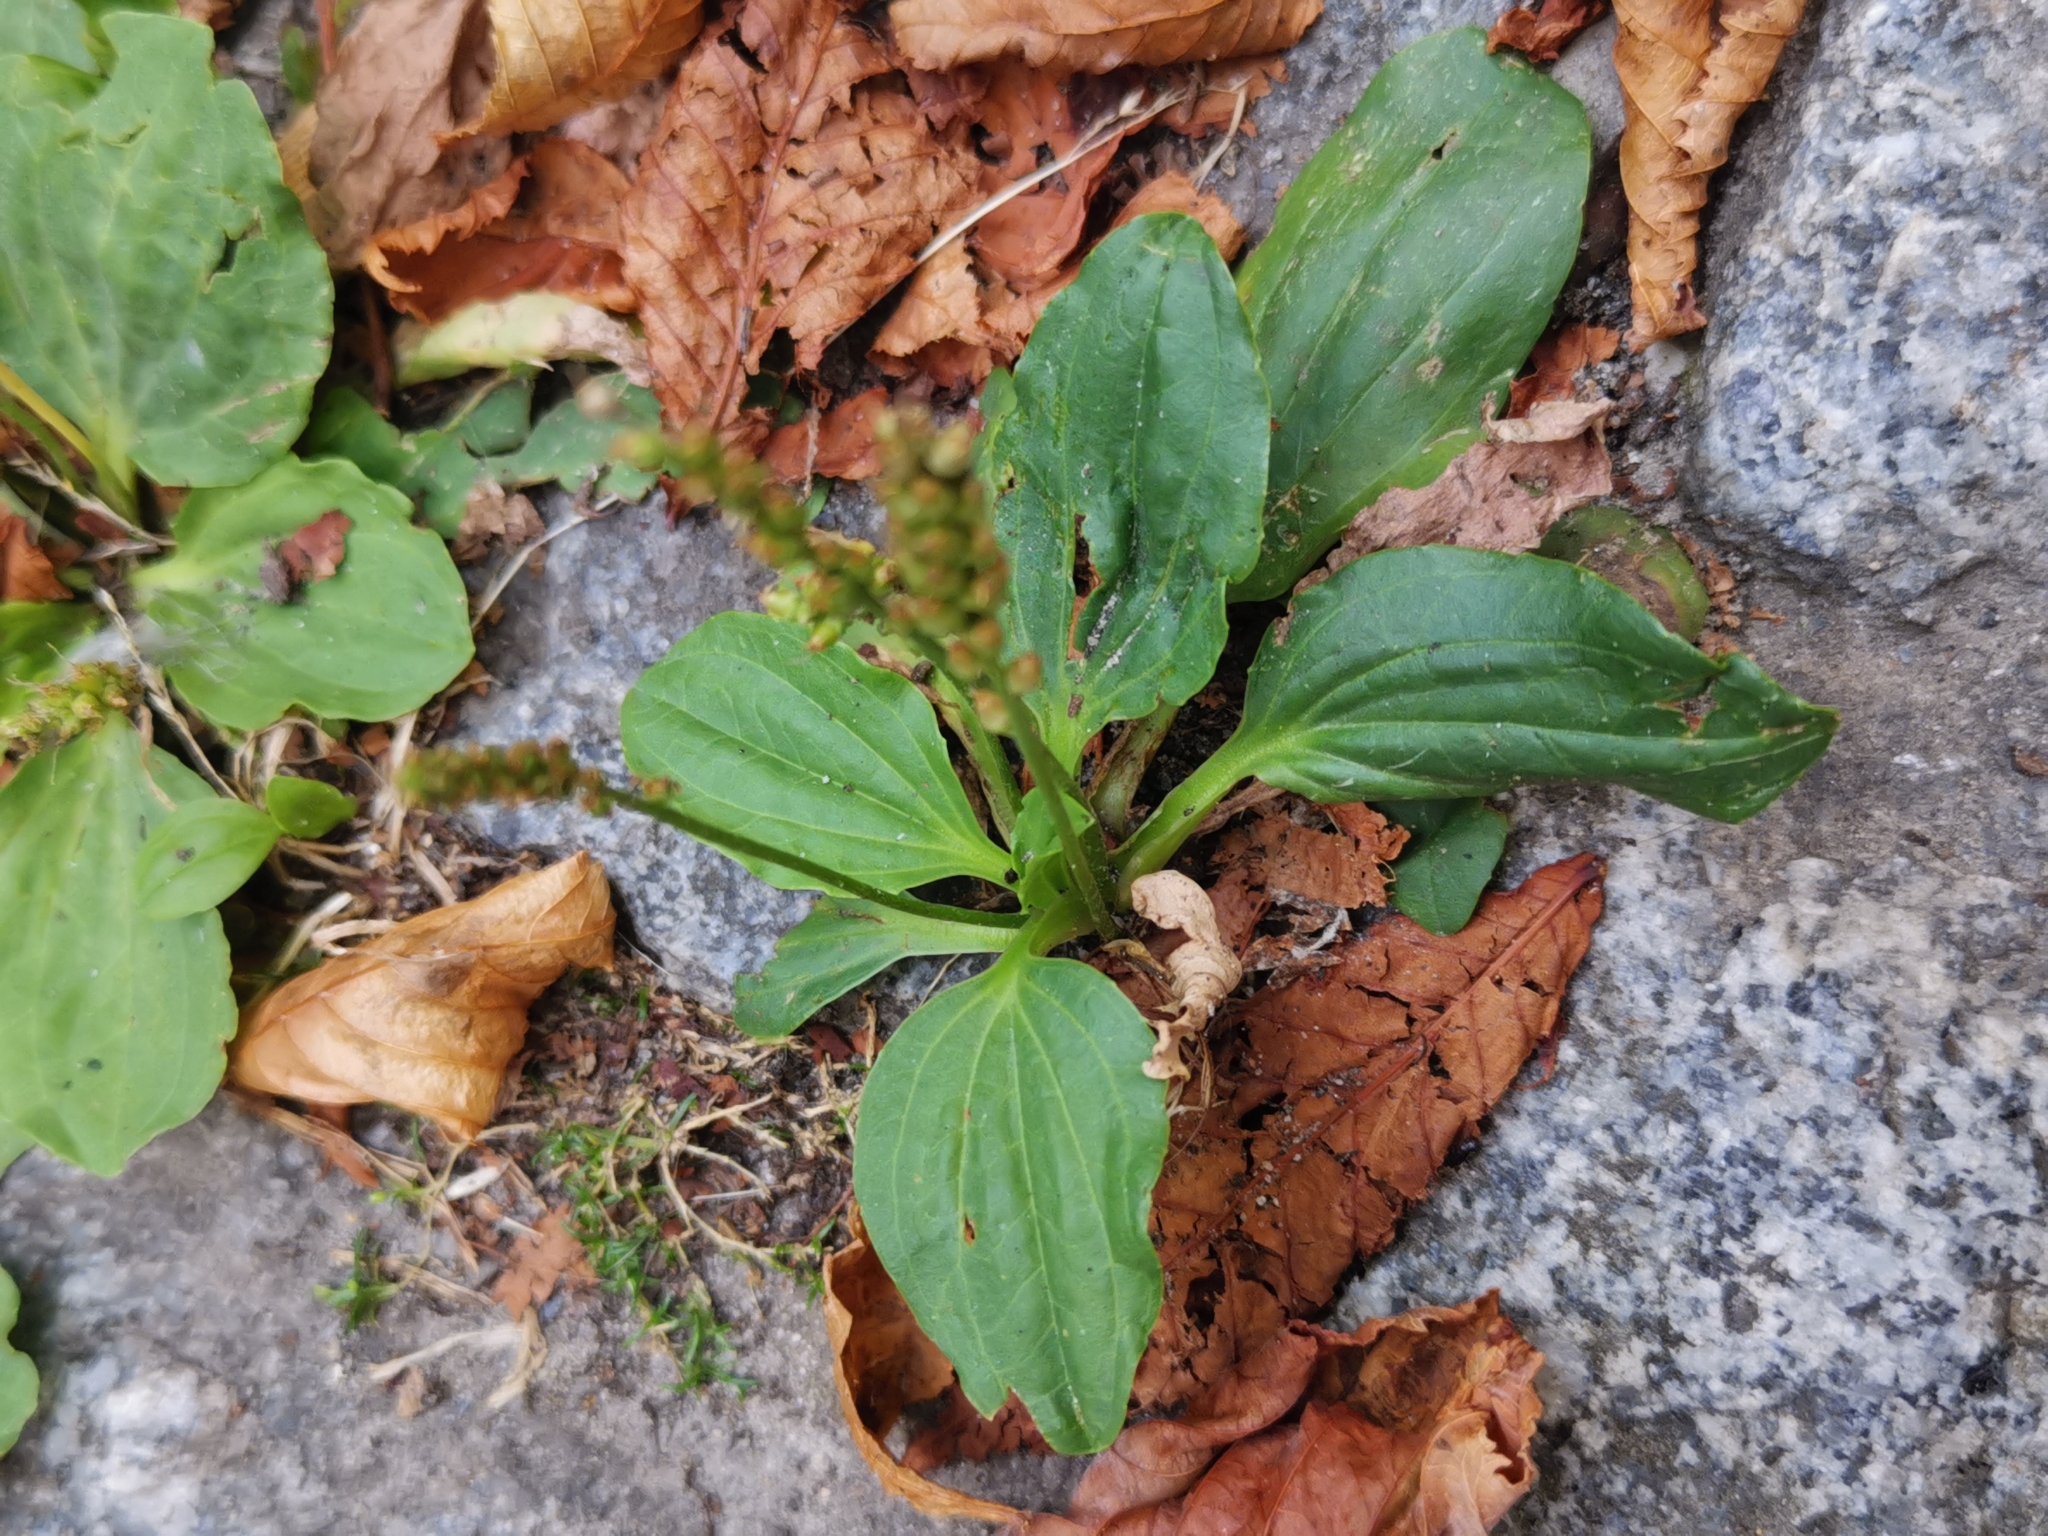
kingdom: Plantae
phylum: Tracheophyta
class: Magnoliopsida
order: Lamiales
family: Plantaginaceae
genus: Plantago
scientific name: Plantago major
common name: Common plantain
